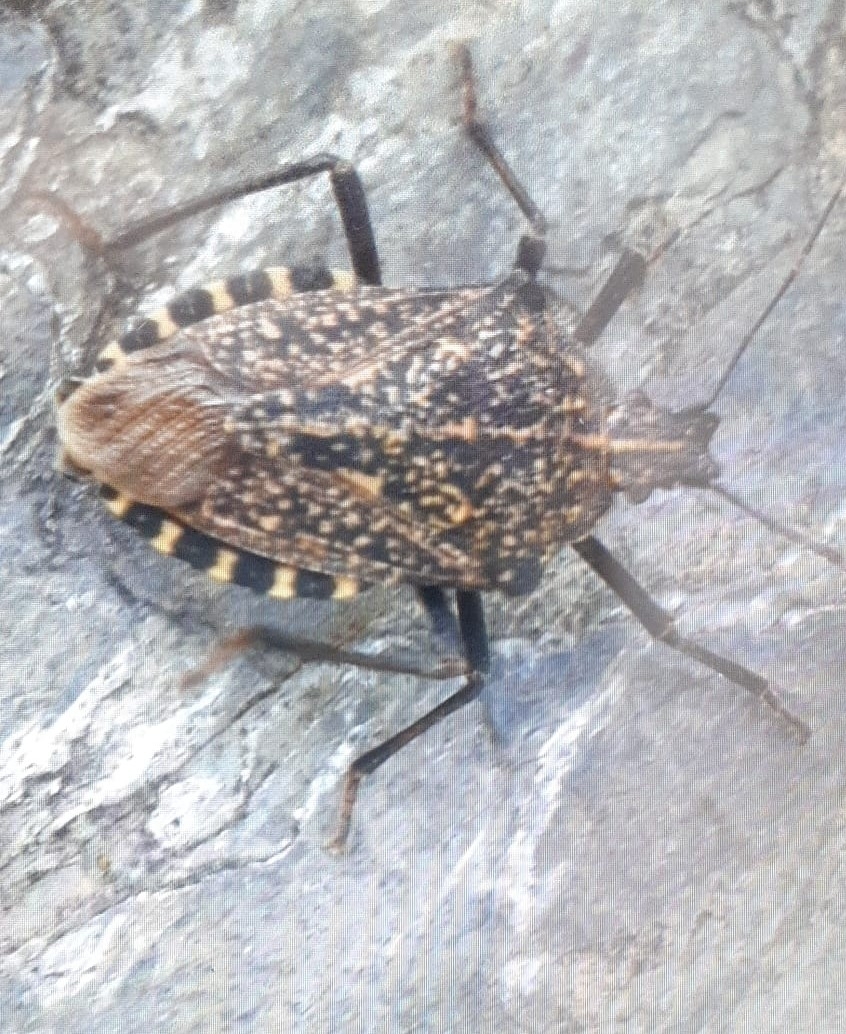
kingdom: Animalia
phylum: Arthropoda
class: Insecta
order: Hemiptera
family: Pentatomidae
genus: Apodiphus
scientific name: Apodiphus amygdali
